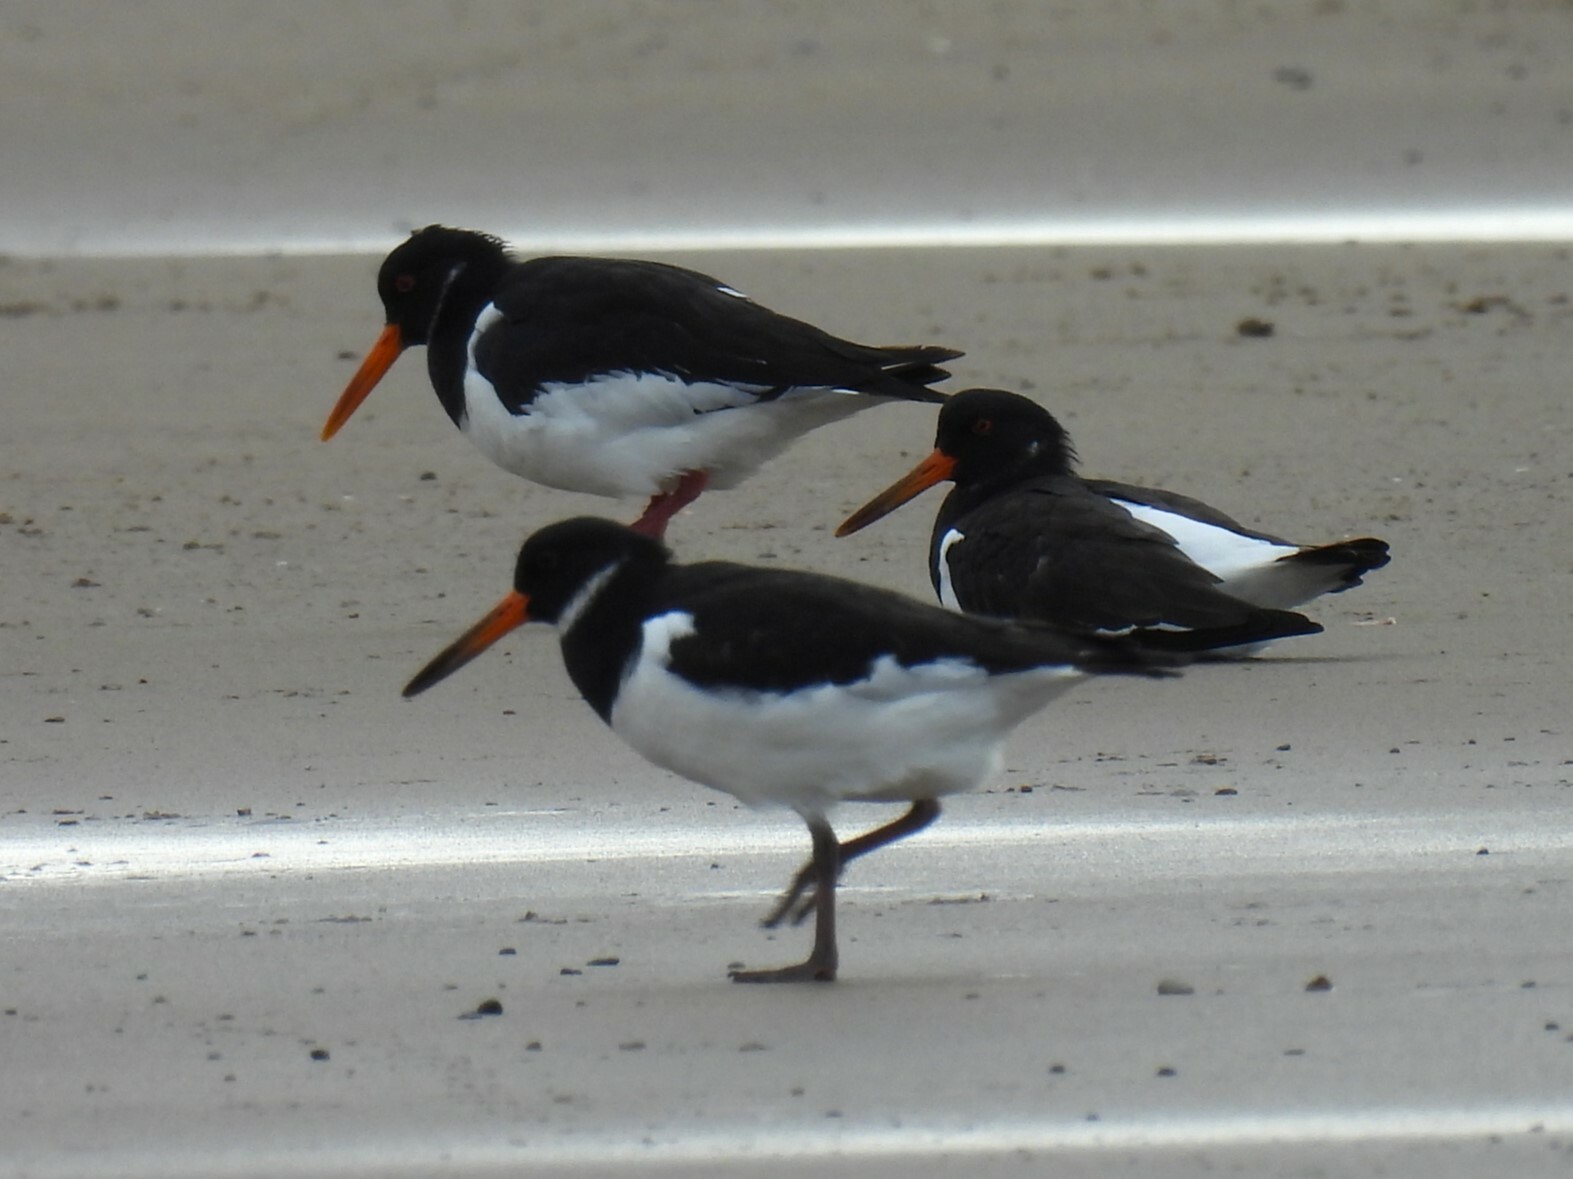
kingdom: Animalia
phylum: Chordata
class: Aves
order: Charadriiformes
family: Haematopodidae
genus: Haematopus
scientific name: Haematopus ostralegus
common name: Eurasian oystercatcher
